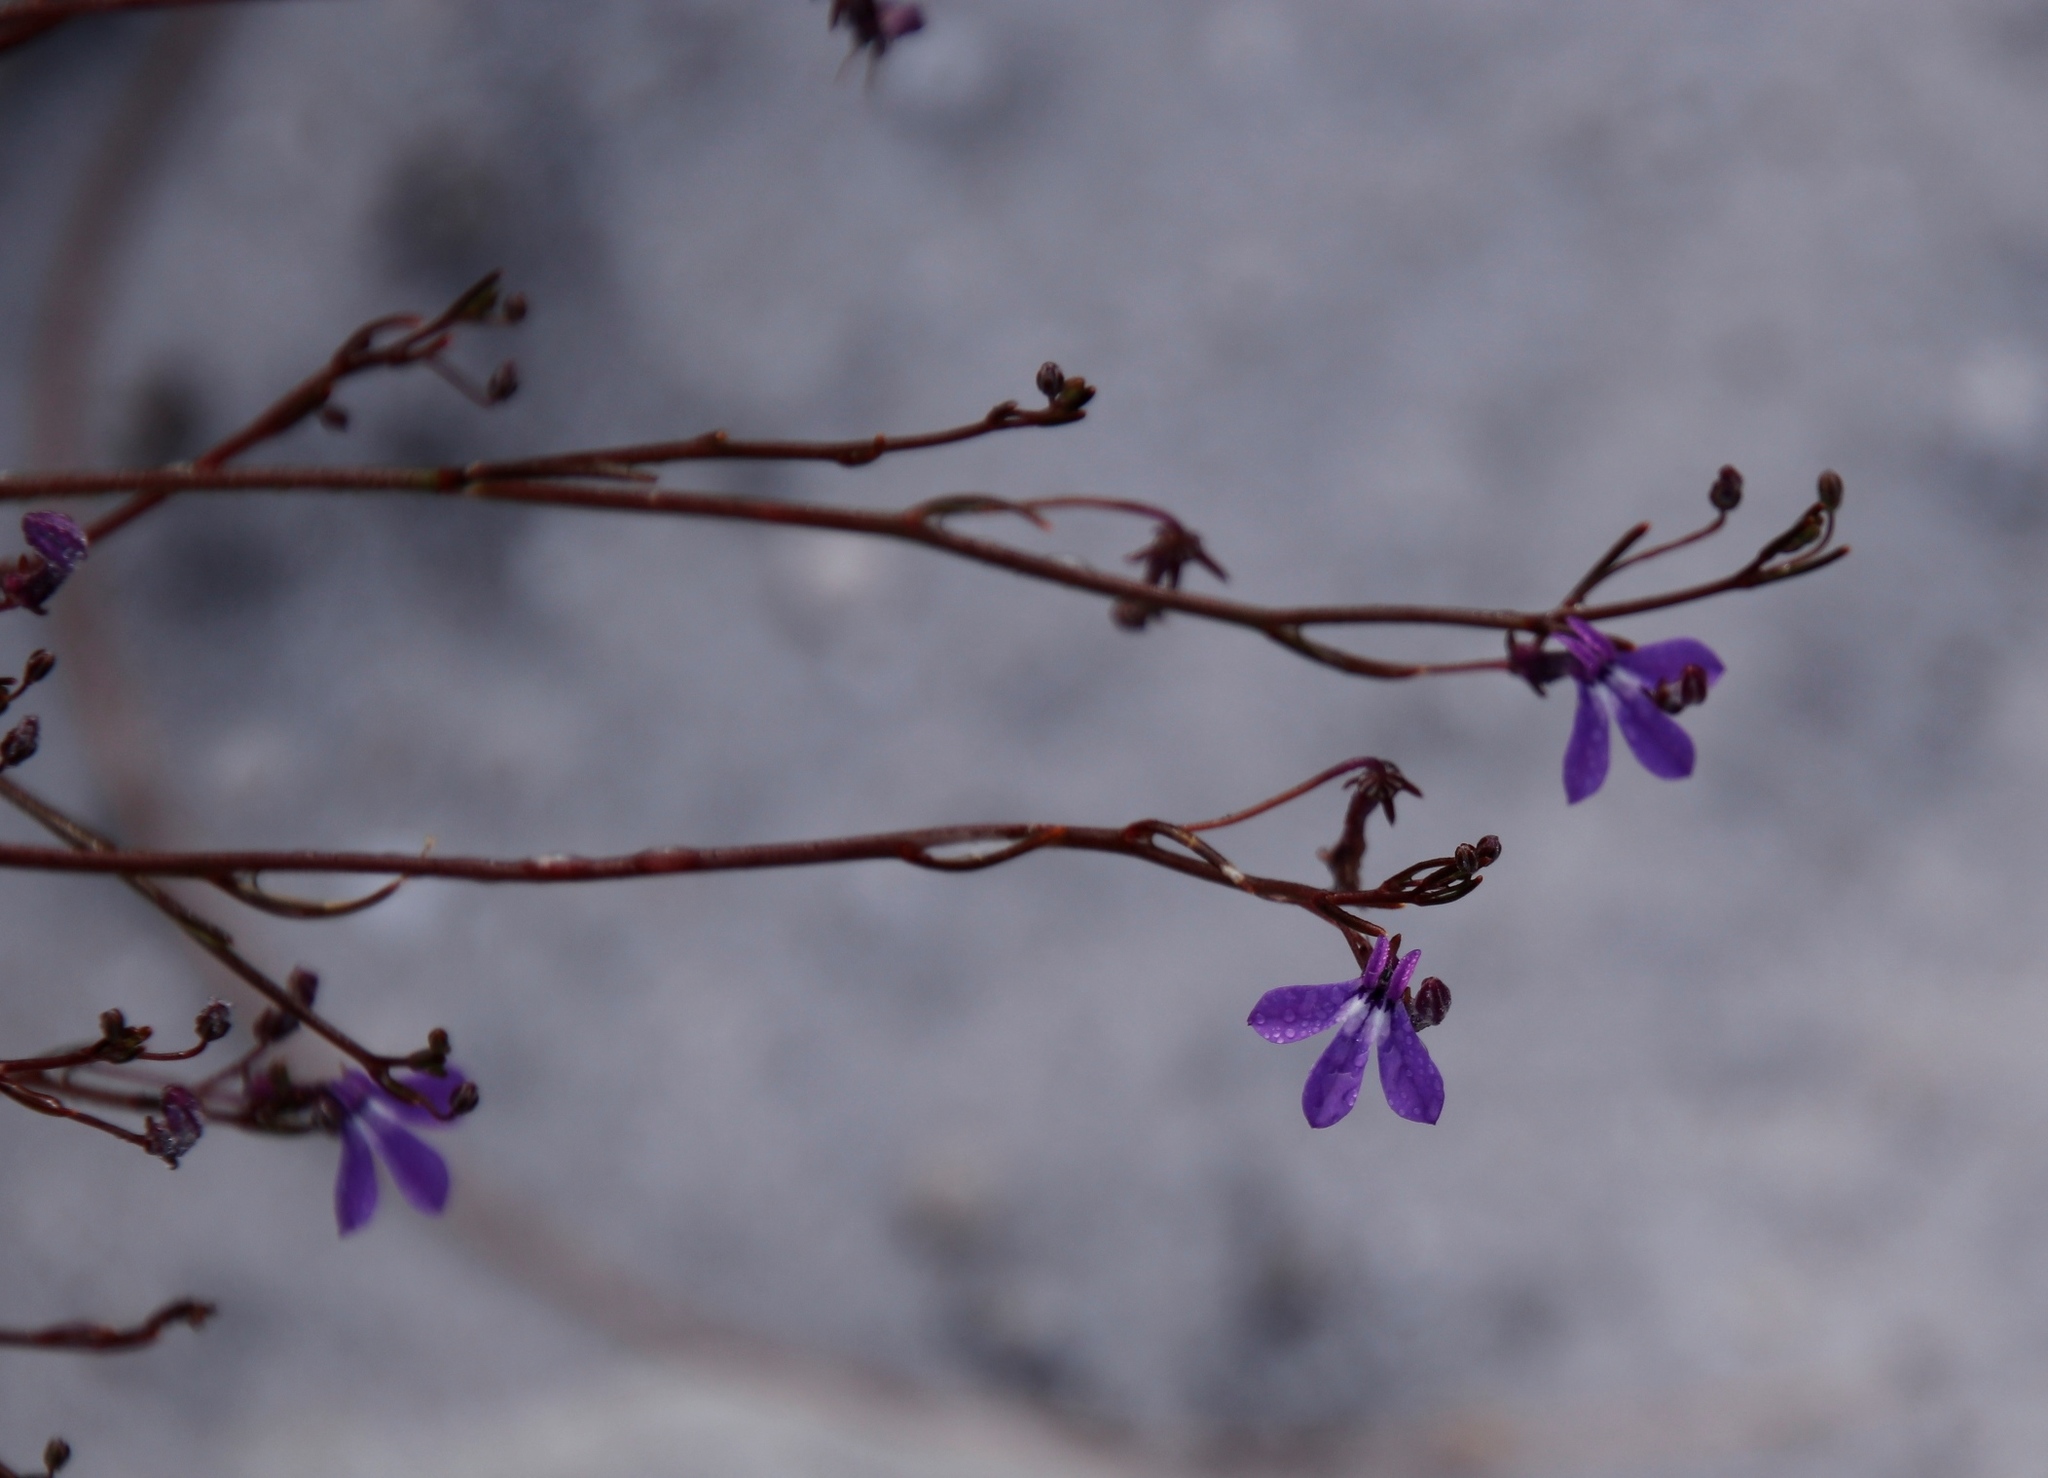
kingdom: Plantae
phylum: Tracheophyta
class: Magnoliopsida
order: Asterales
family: Campanulaceae
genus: Lobelia
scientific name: Lobelia setacea
